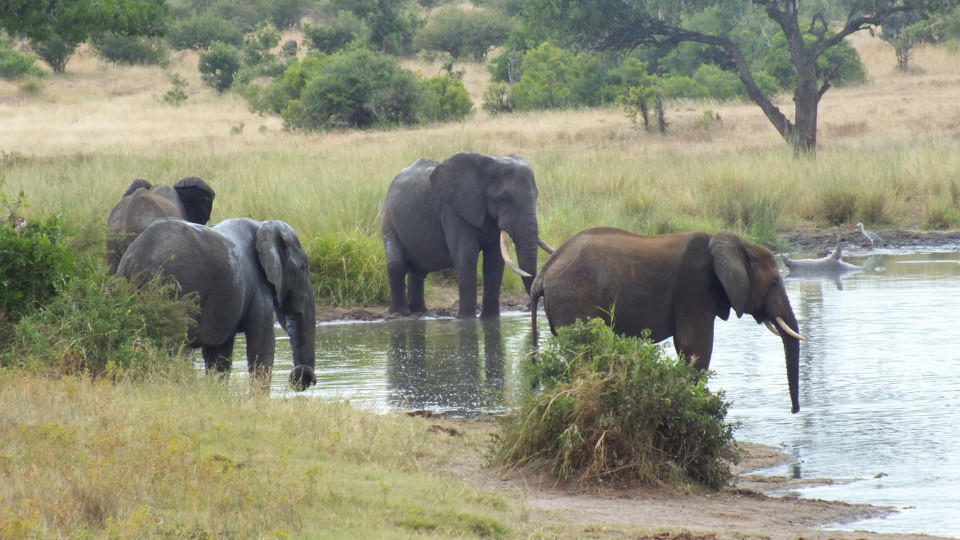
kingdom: Animalia
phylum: Chordata
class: Mammalia
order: Proboscidea
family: Elephantidae
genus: Loxodonta
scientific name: Loxodonta africana
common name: African elephant
